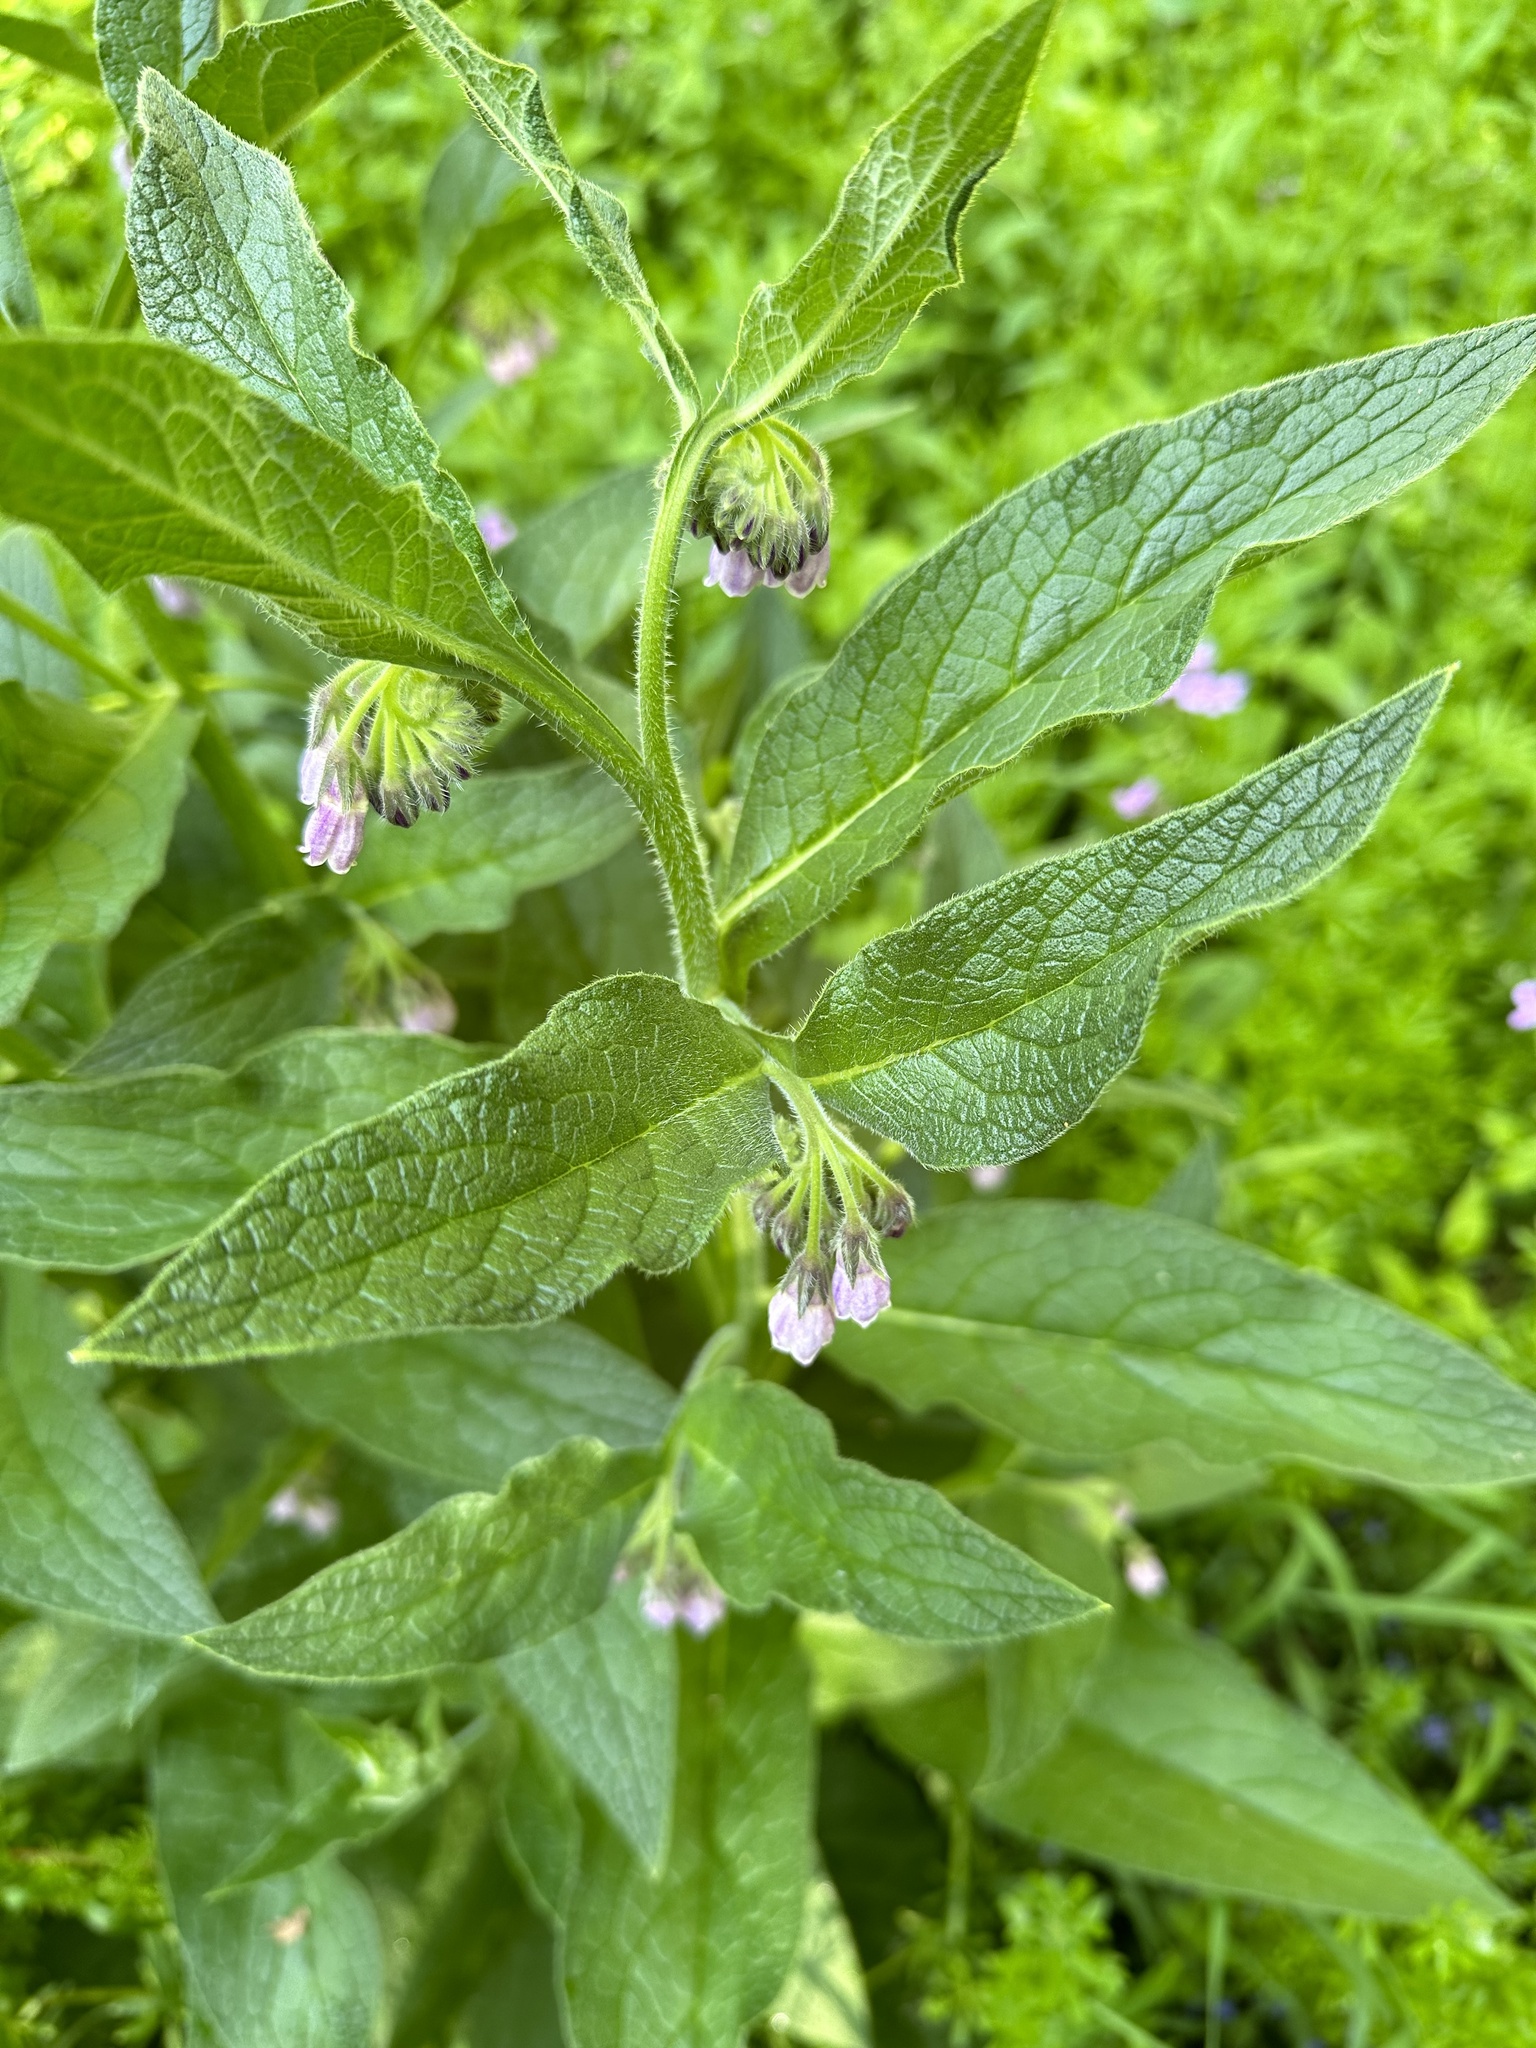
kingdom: Plantae
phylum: Tracheophyta
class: Magnoliopsida
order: Boraginales
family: Boraginaceae
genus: Symphytum
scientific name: Symphytum officinale
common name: Common comfrey
